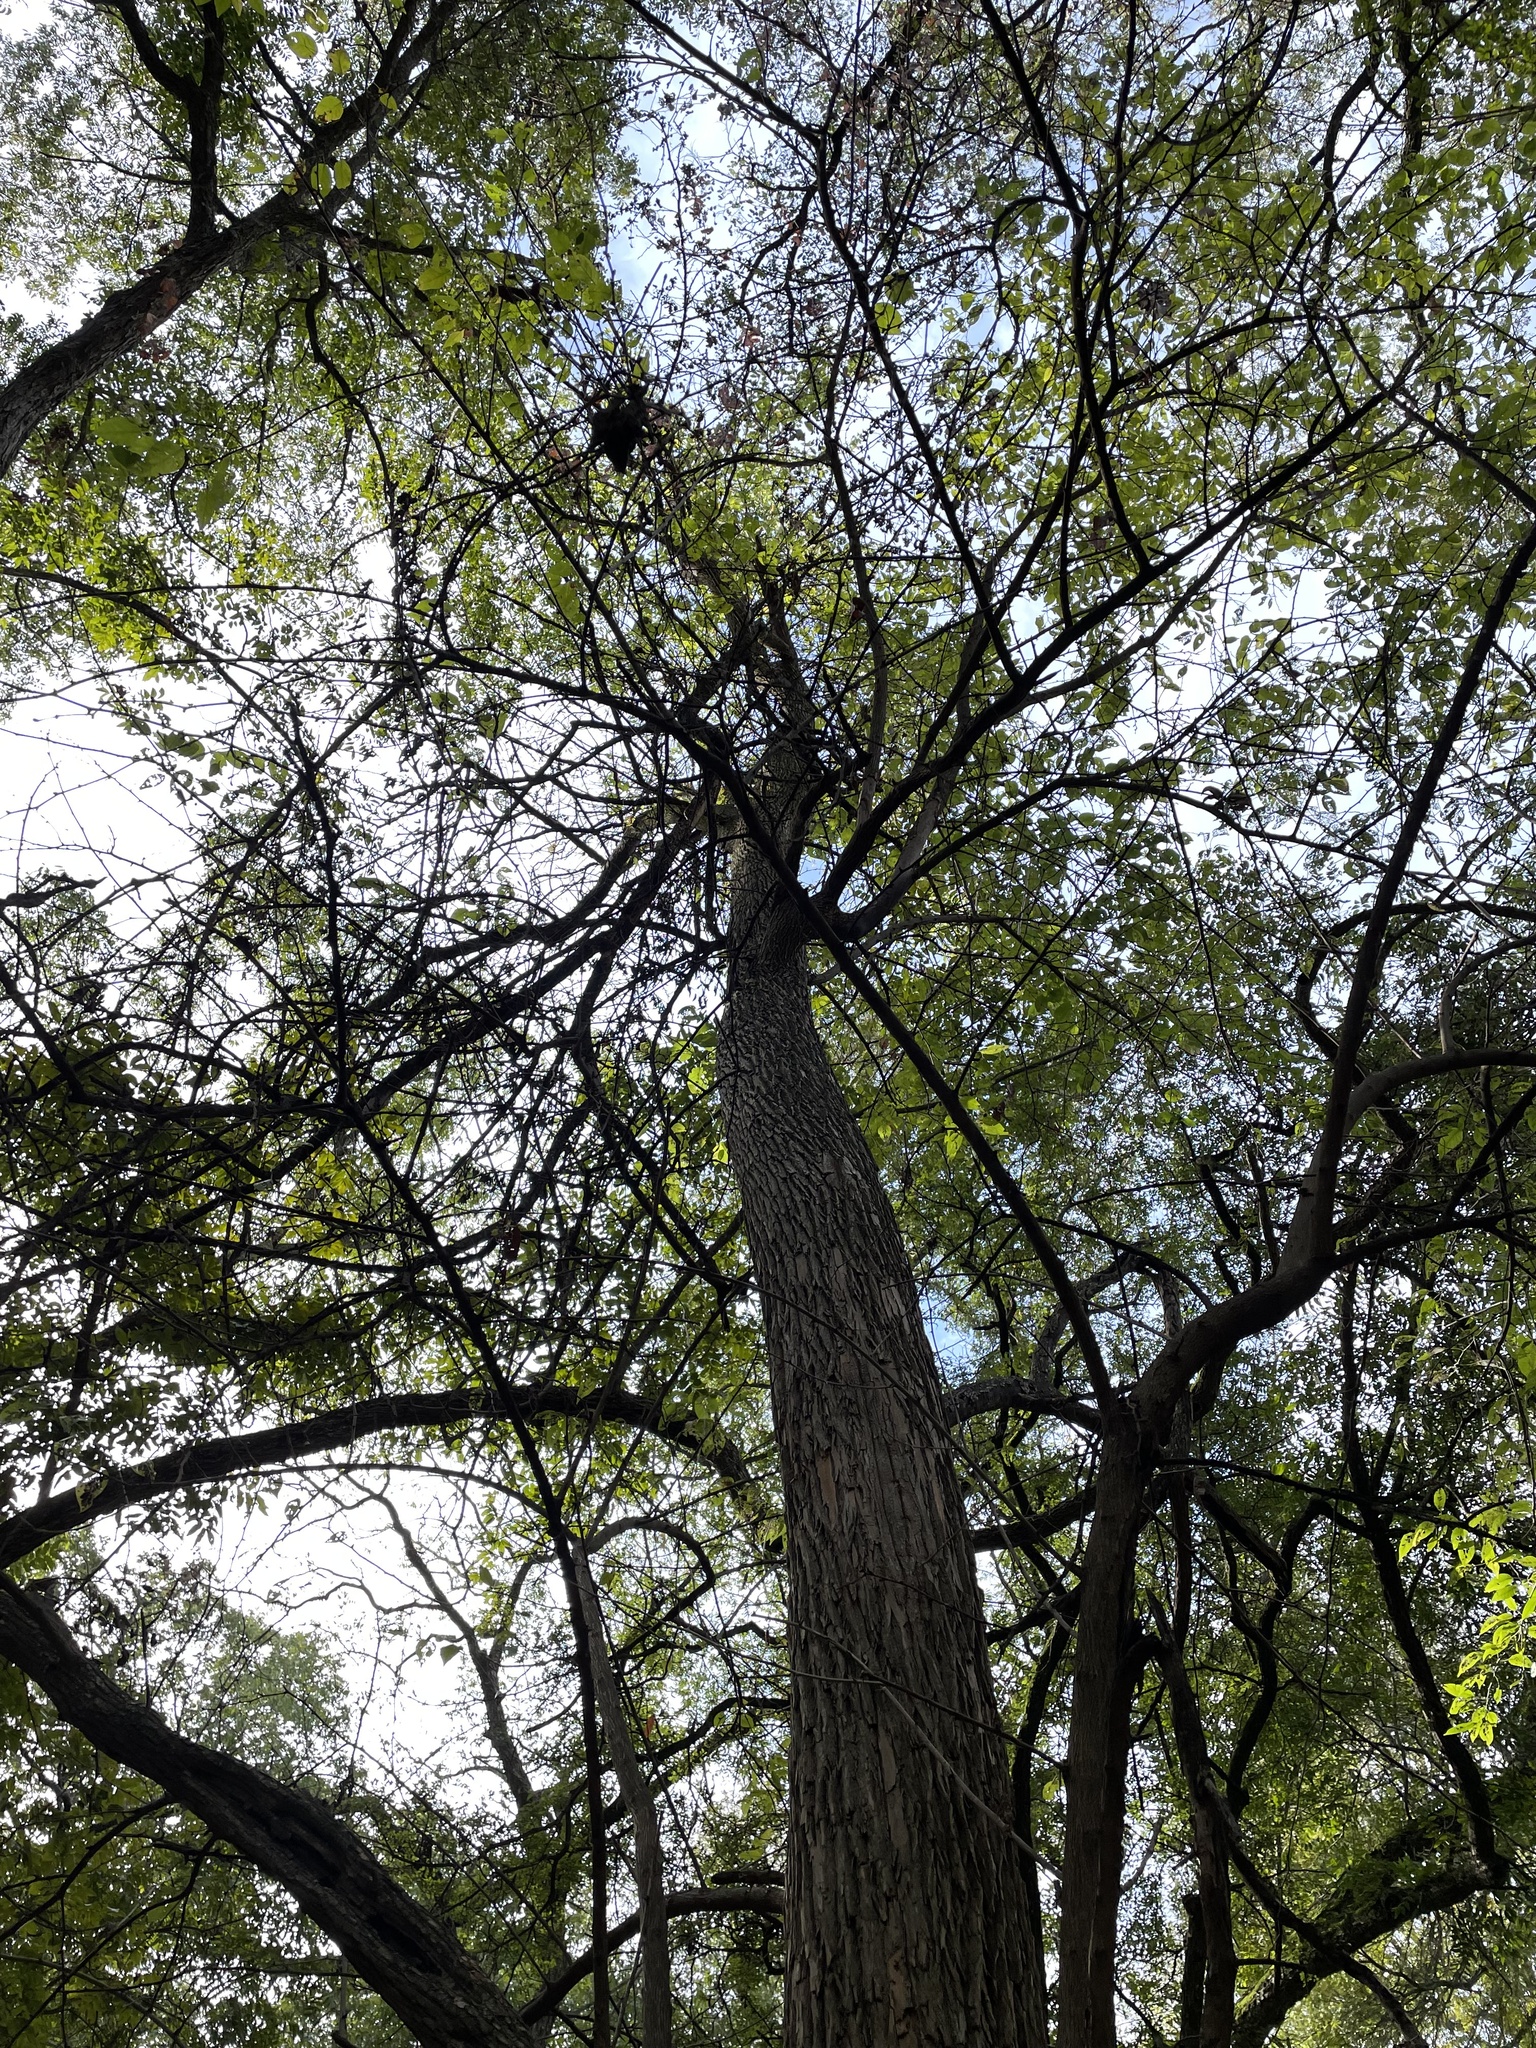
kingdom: Plantae
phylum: Tracheophyta
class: Magnoliopsida
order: Rosales
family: Moraceae
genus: Maclura
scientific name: Maclura pomifera
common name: Osage-orange
